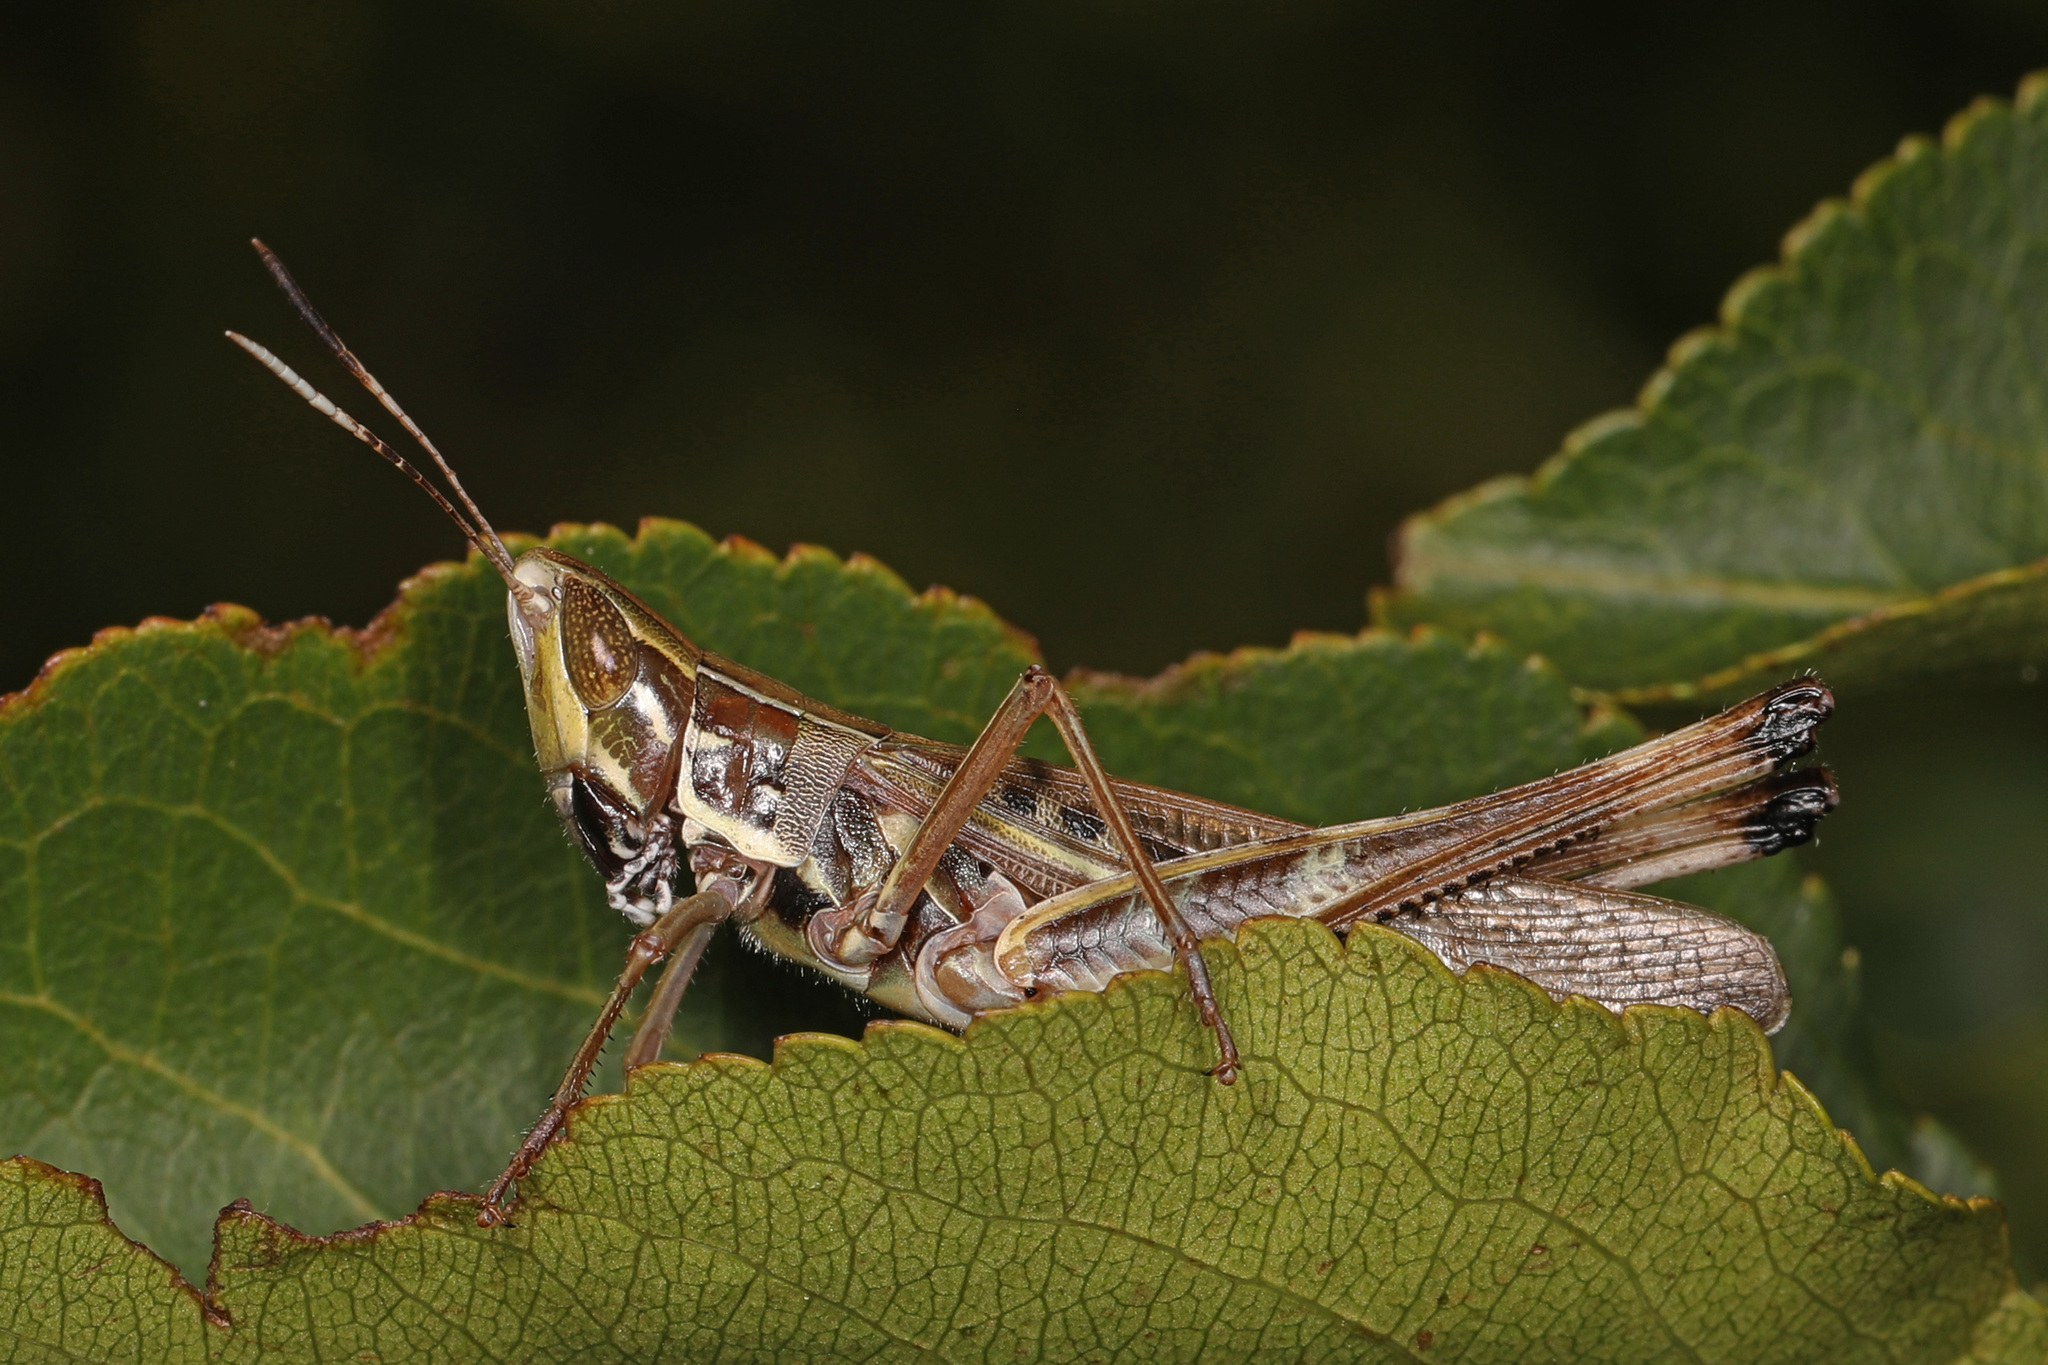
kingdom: Animalia
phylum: Arthropoda
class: Insecta
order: Orthoptera
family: Acrididae
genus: Syrbula
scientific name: Syrbula admirabilis
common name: Handsome grasshopper
